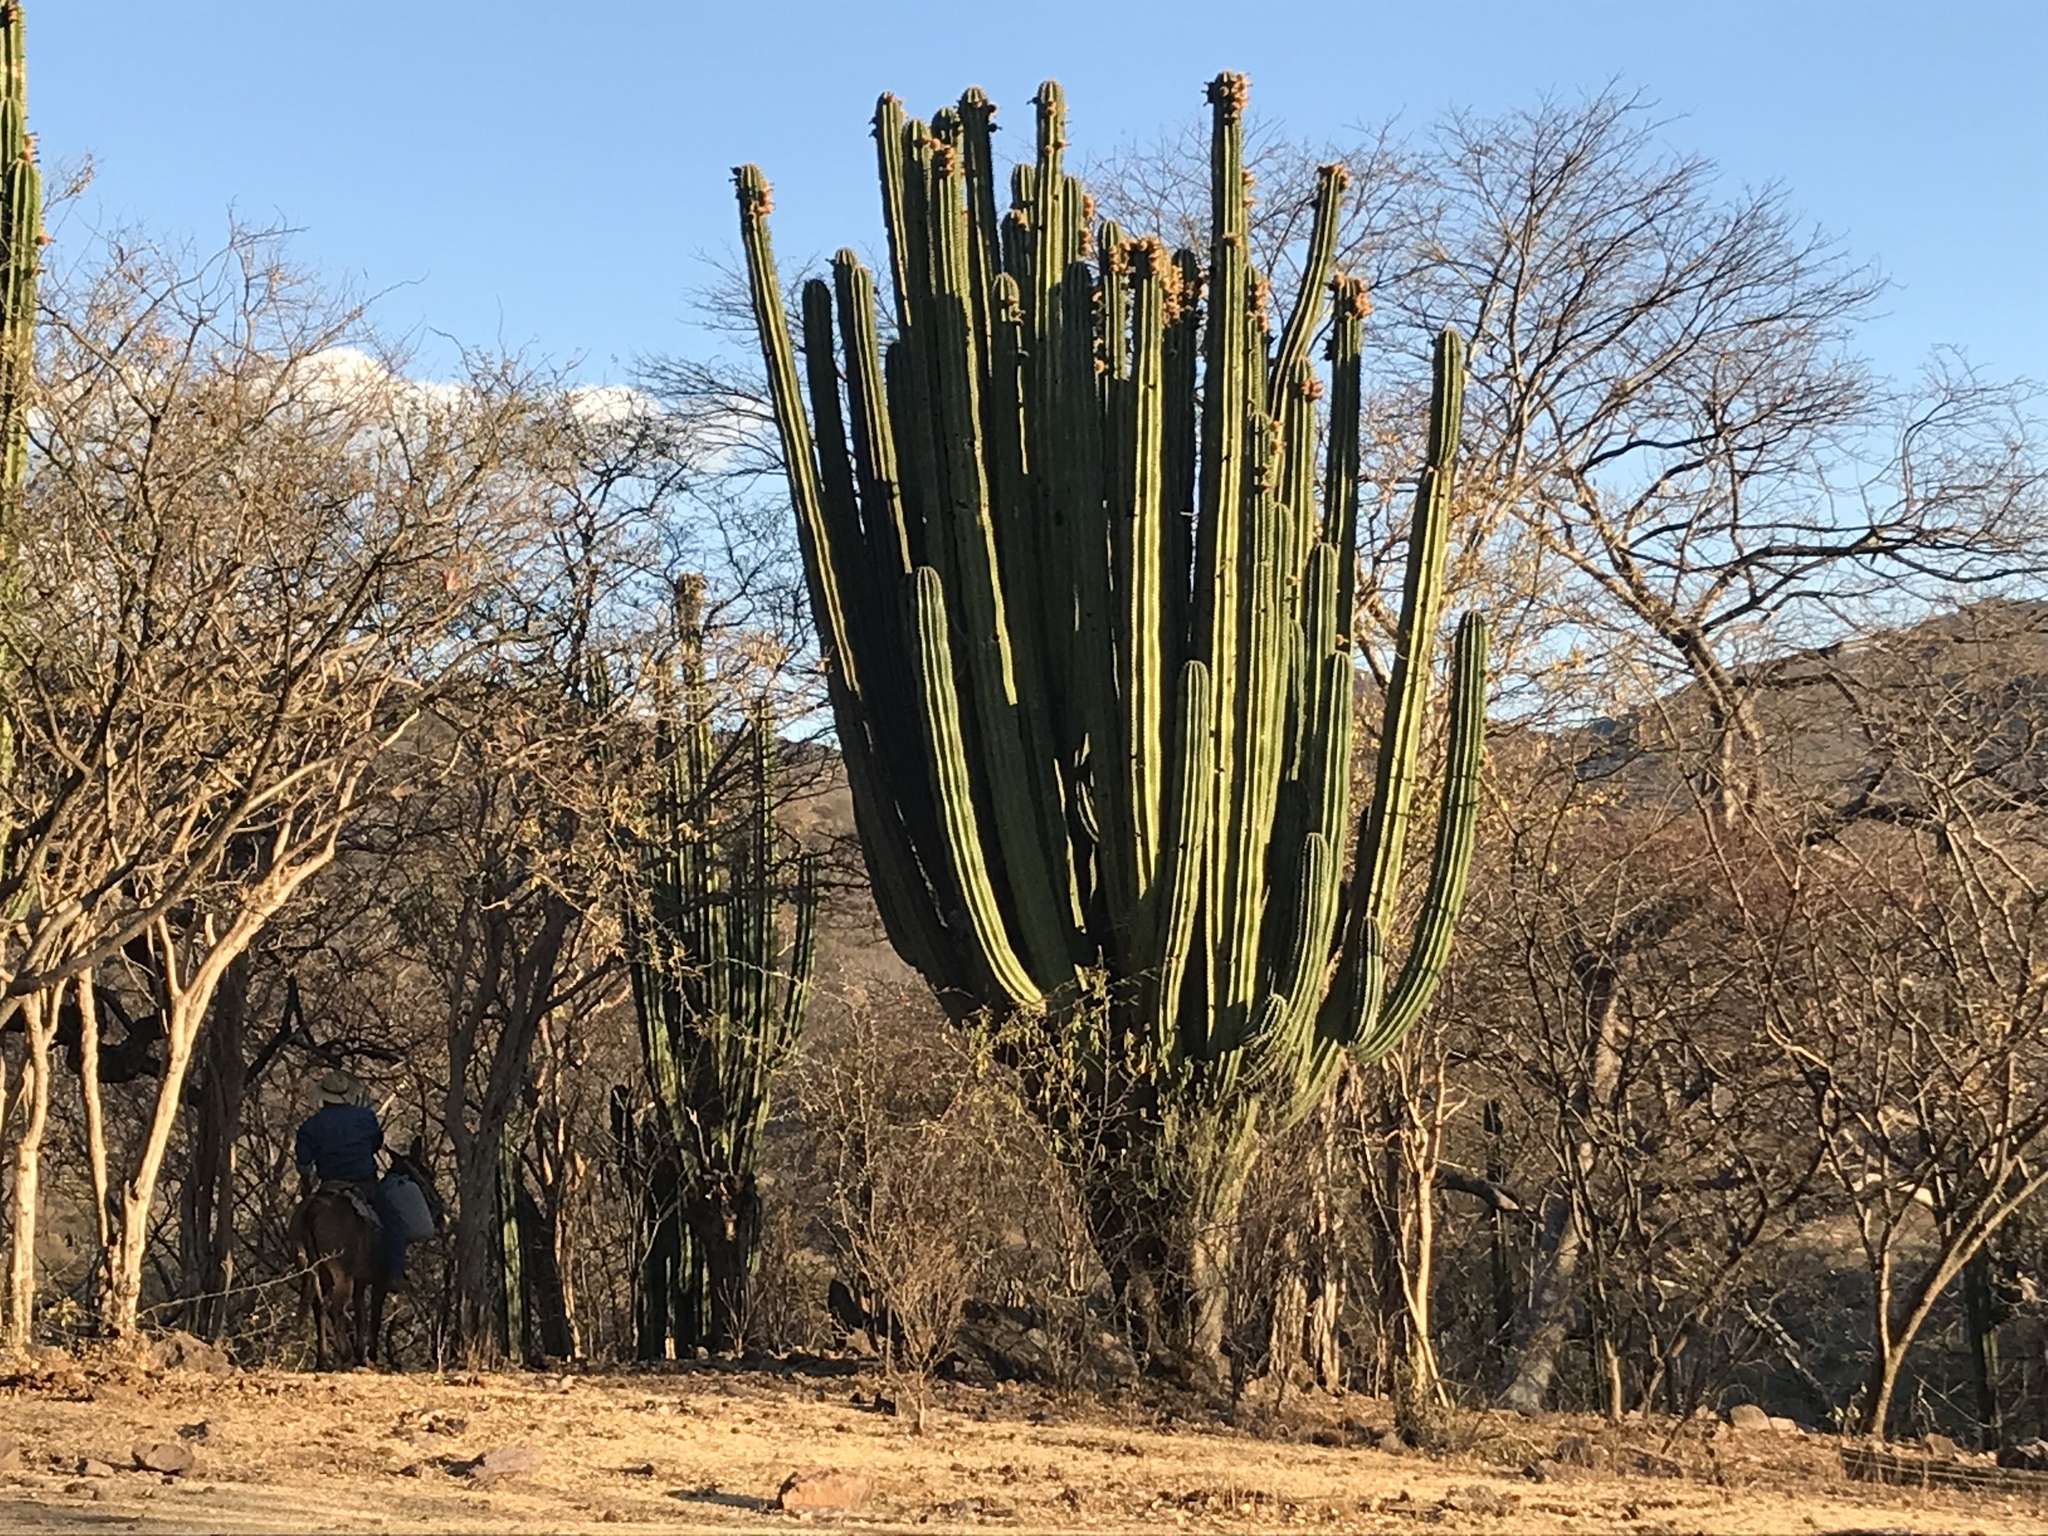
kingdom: Plantae
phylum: Tracheophyta
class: Magnoliopsida
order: Caryophyllales
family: Cactaceae
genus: Pachycereus
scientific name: Pachycereus grandis
